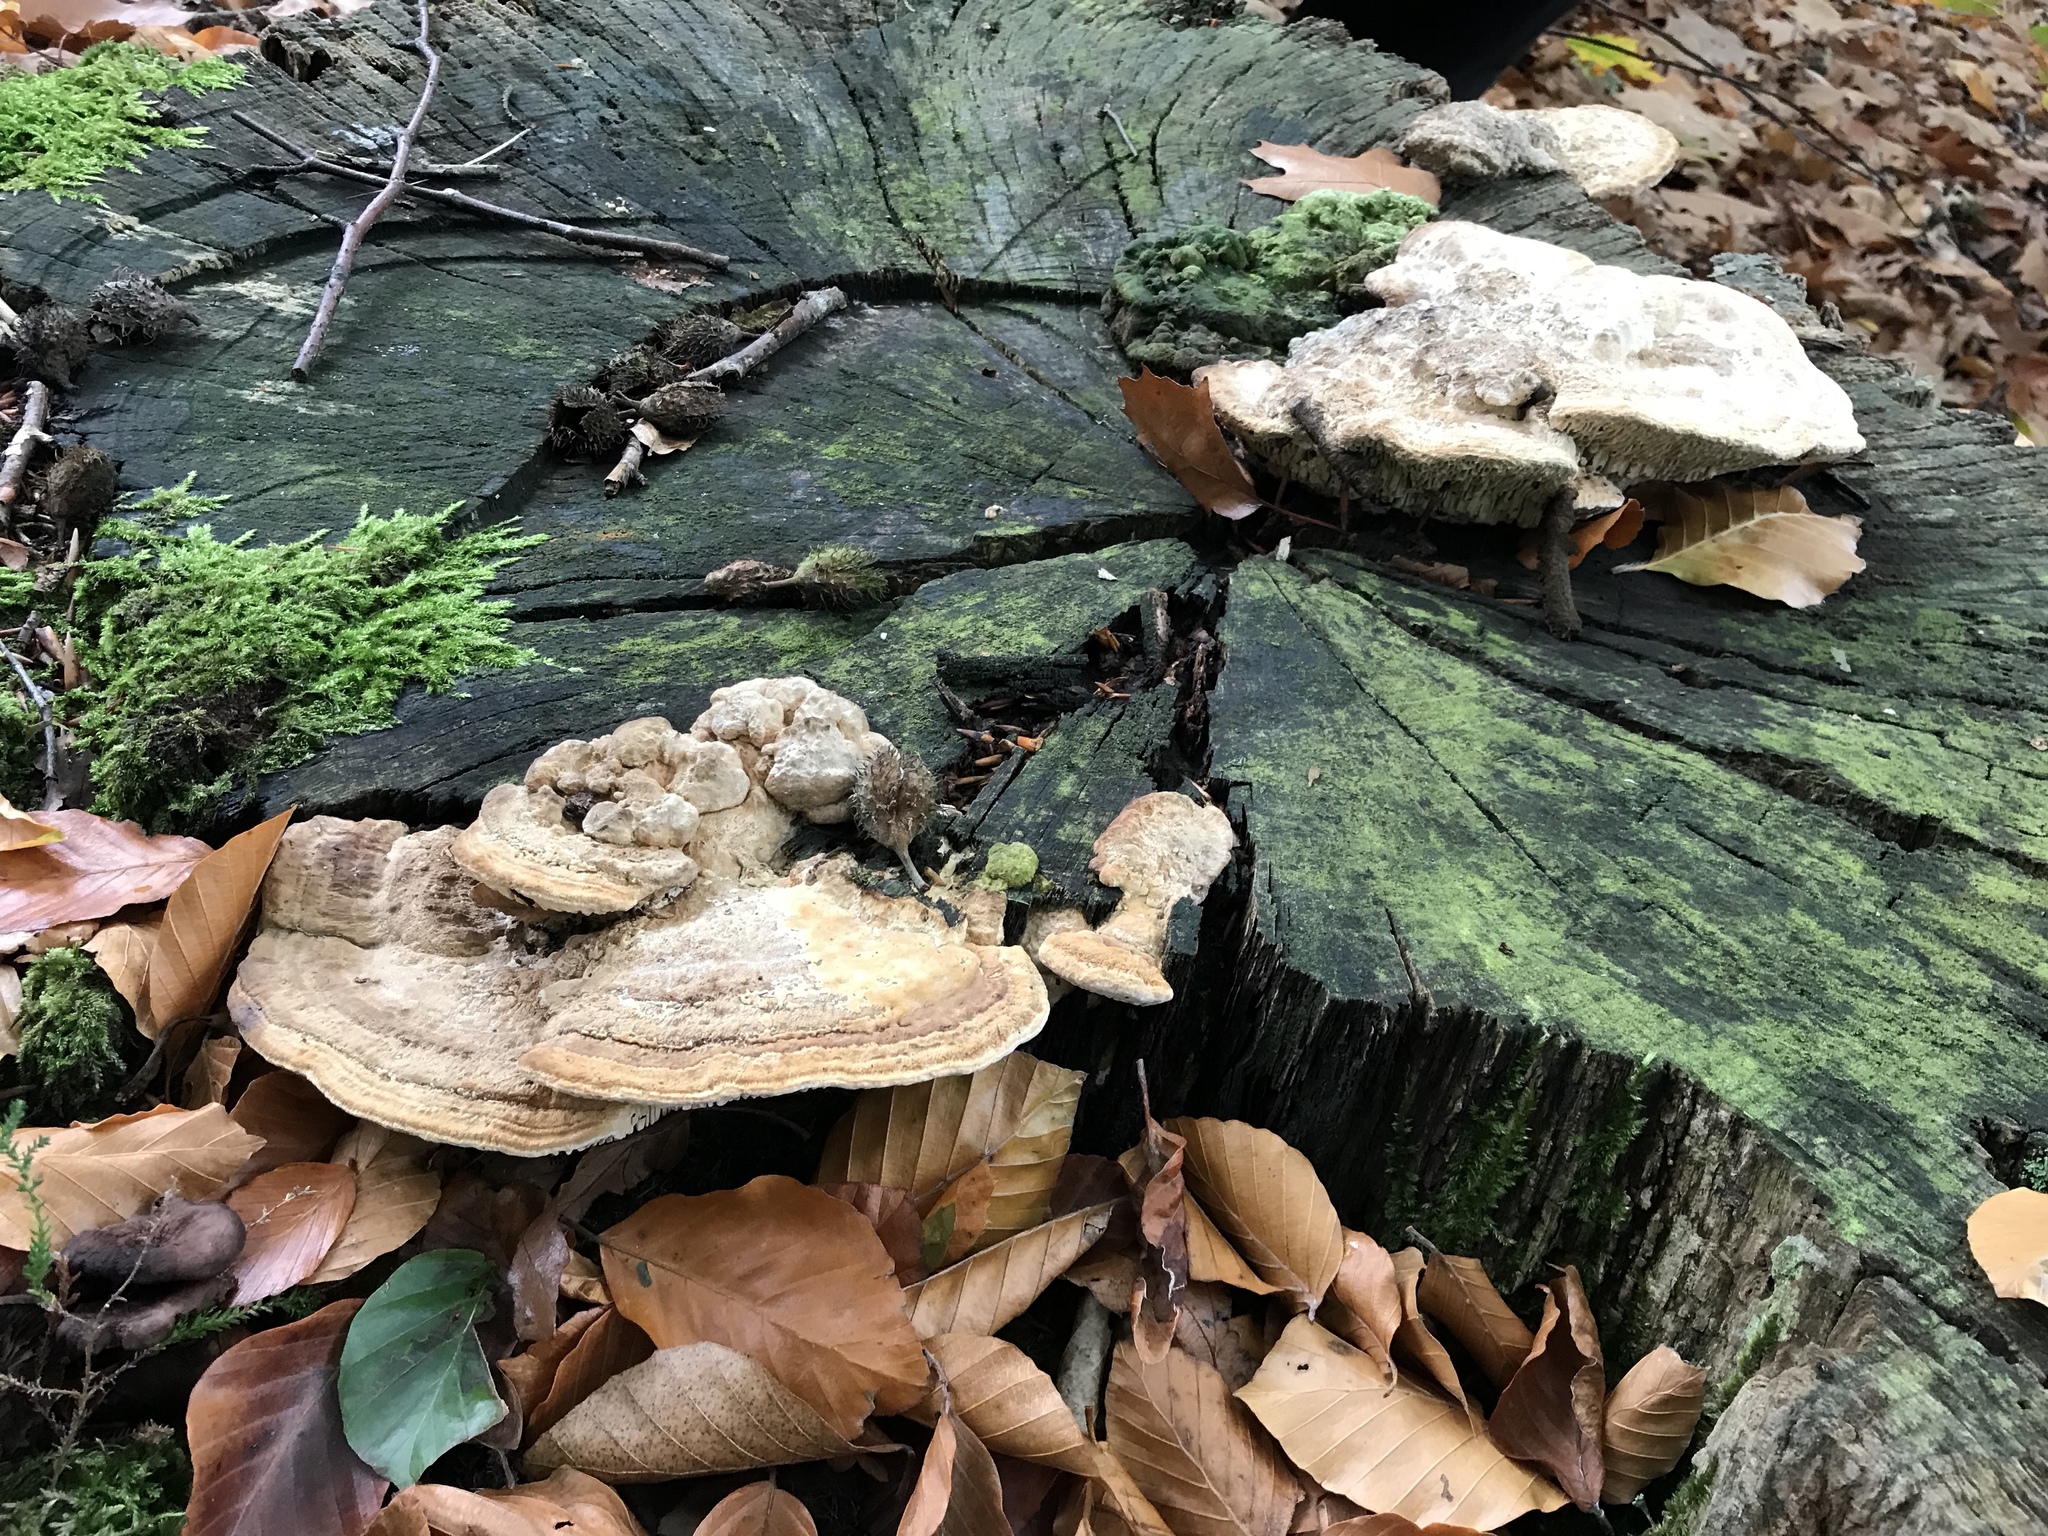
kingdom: Fungi
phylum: Basidiomycota
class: Agaricomycetes
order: Polyporales
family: Fomitopsidaceae
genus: Fomitopsis
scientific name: Fomitopsis
